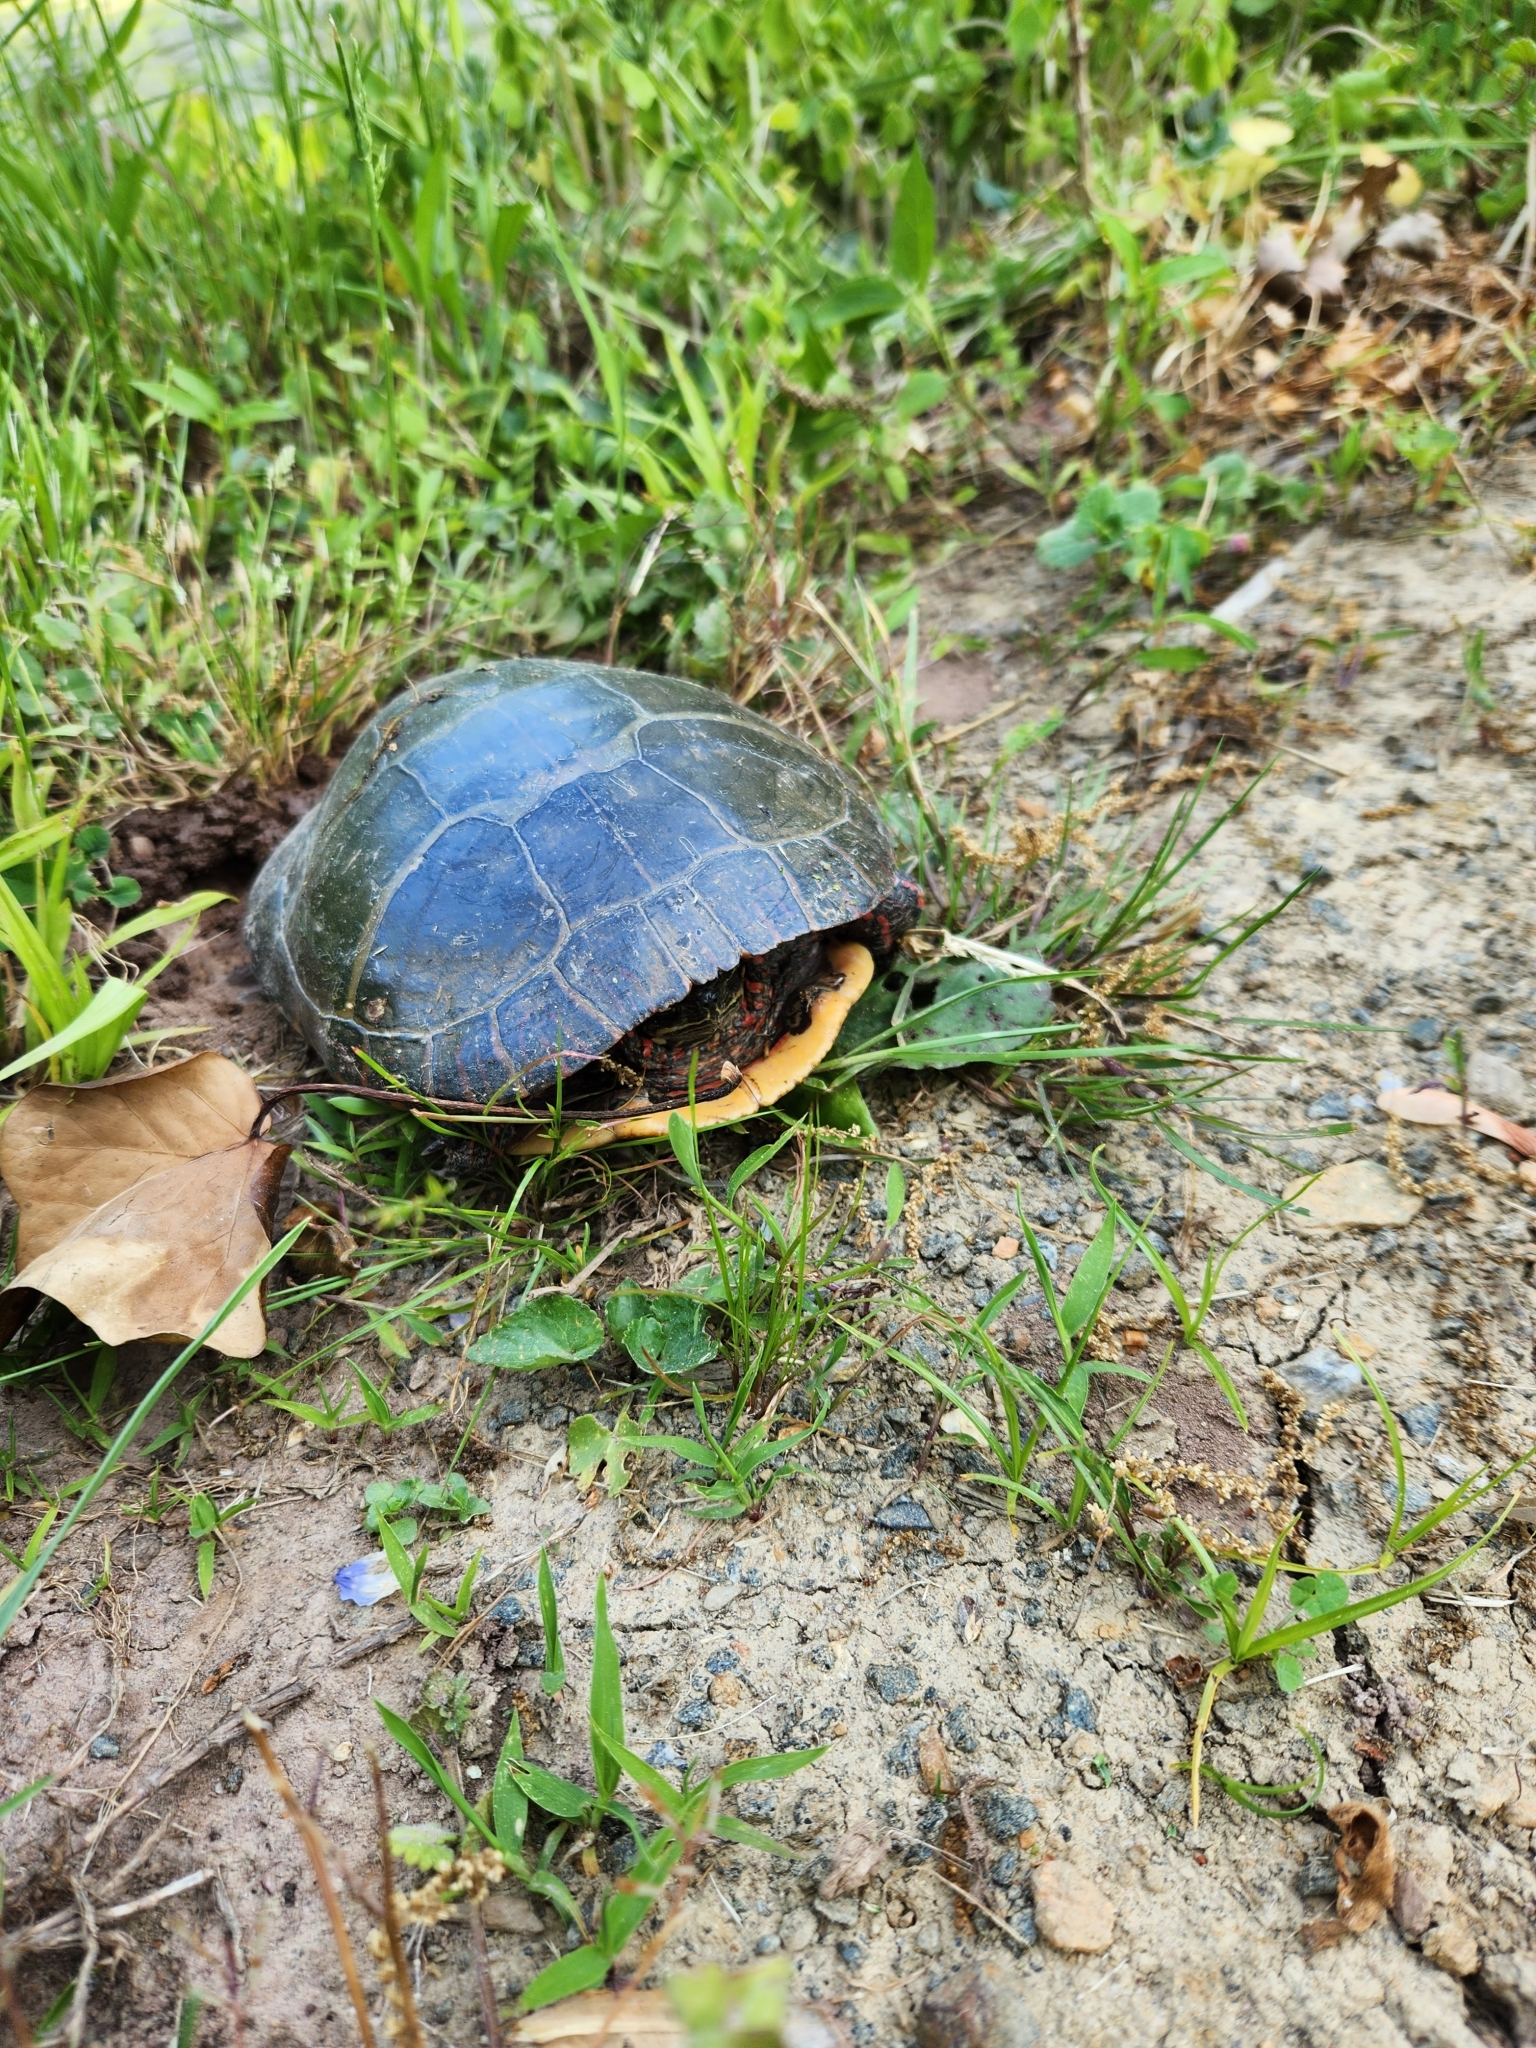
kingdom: Animalia
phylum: Chordata
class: Testudines
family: Emydidae
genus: Chrysemys
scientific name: Chrysemys picta
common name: Painted turtle
